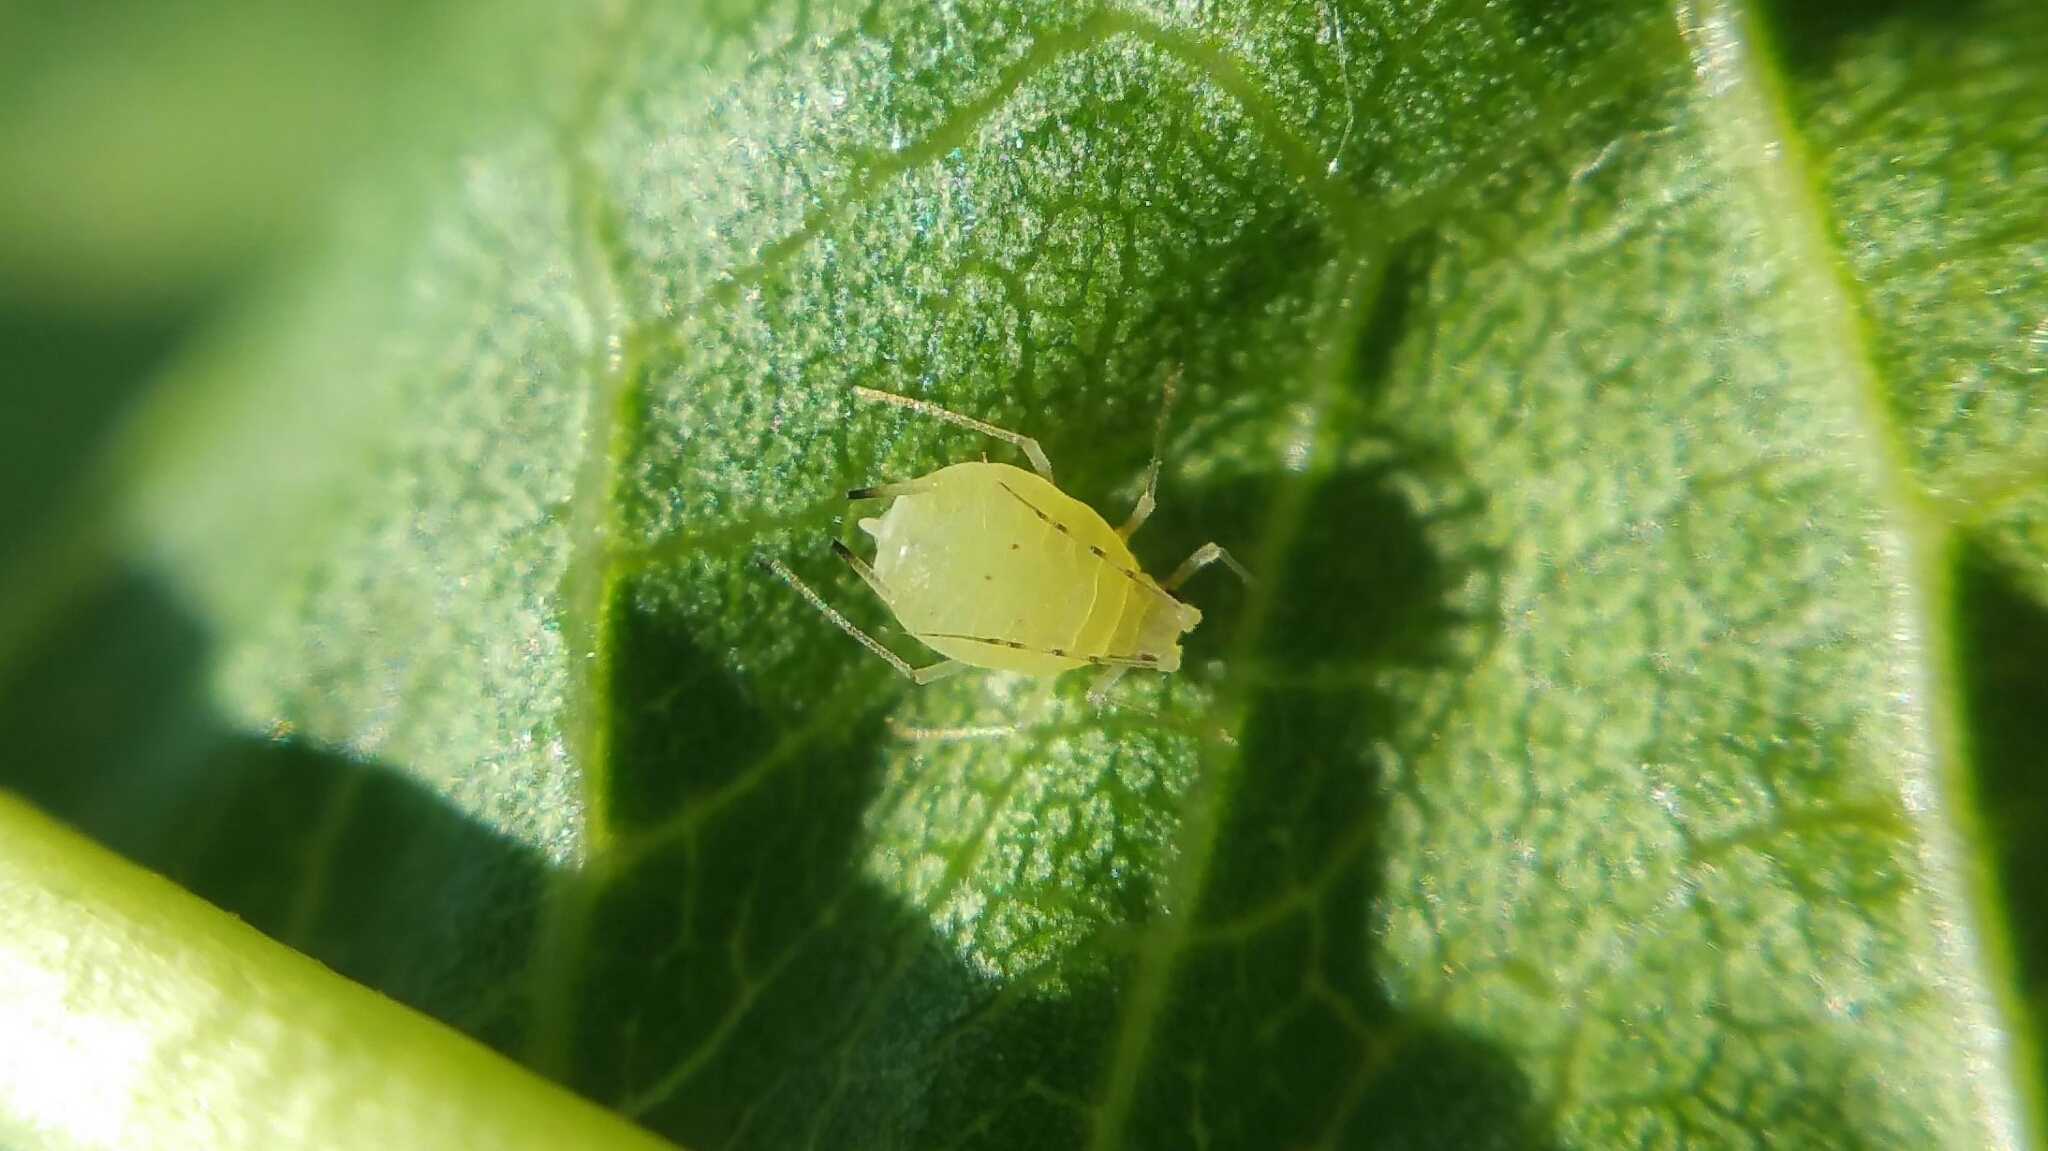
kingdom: Animalia
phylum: Arthropoda
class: Insecta
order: Hemiptera
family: Aphididae
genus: Myzus
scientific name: Myzus varians
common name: Large peach aphid
